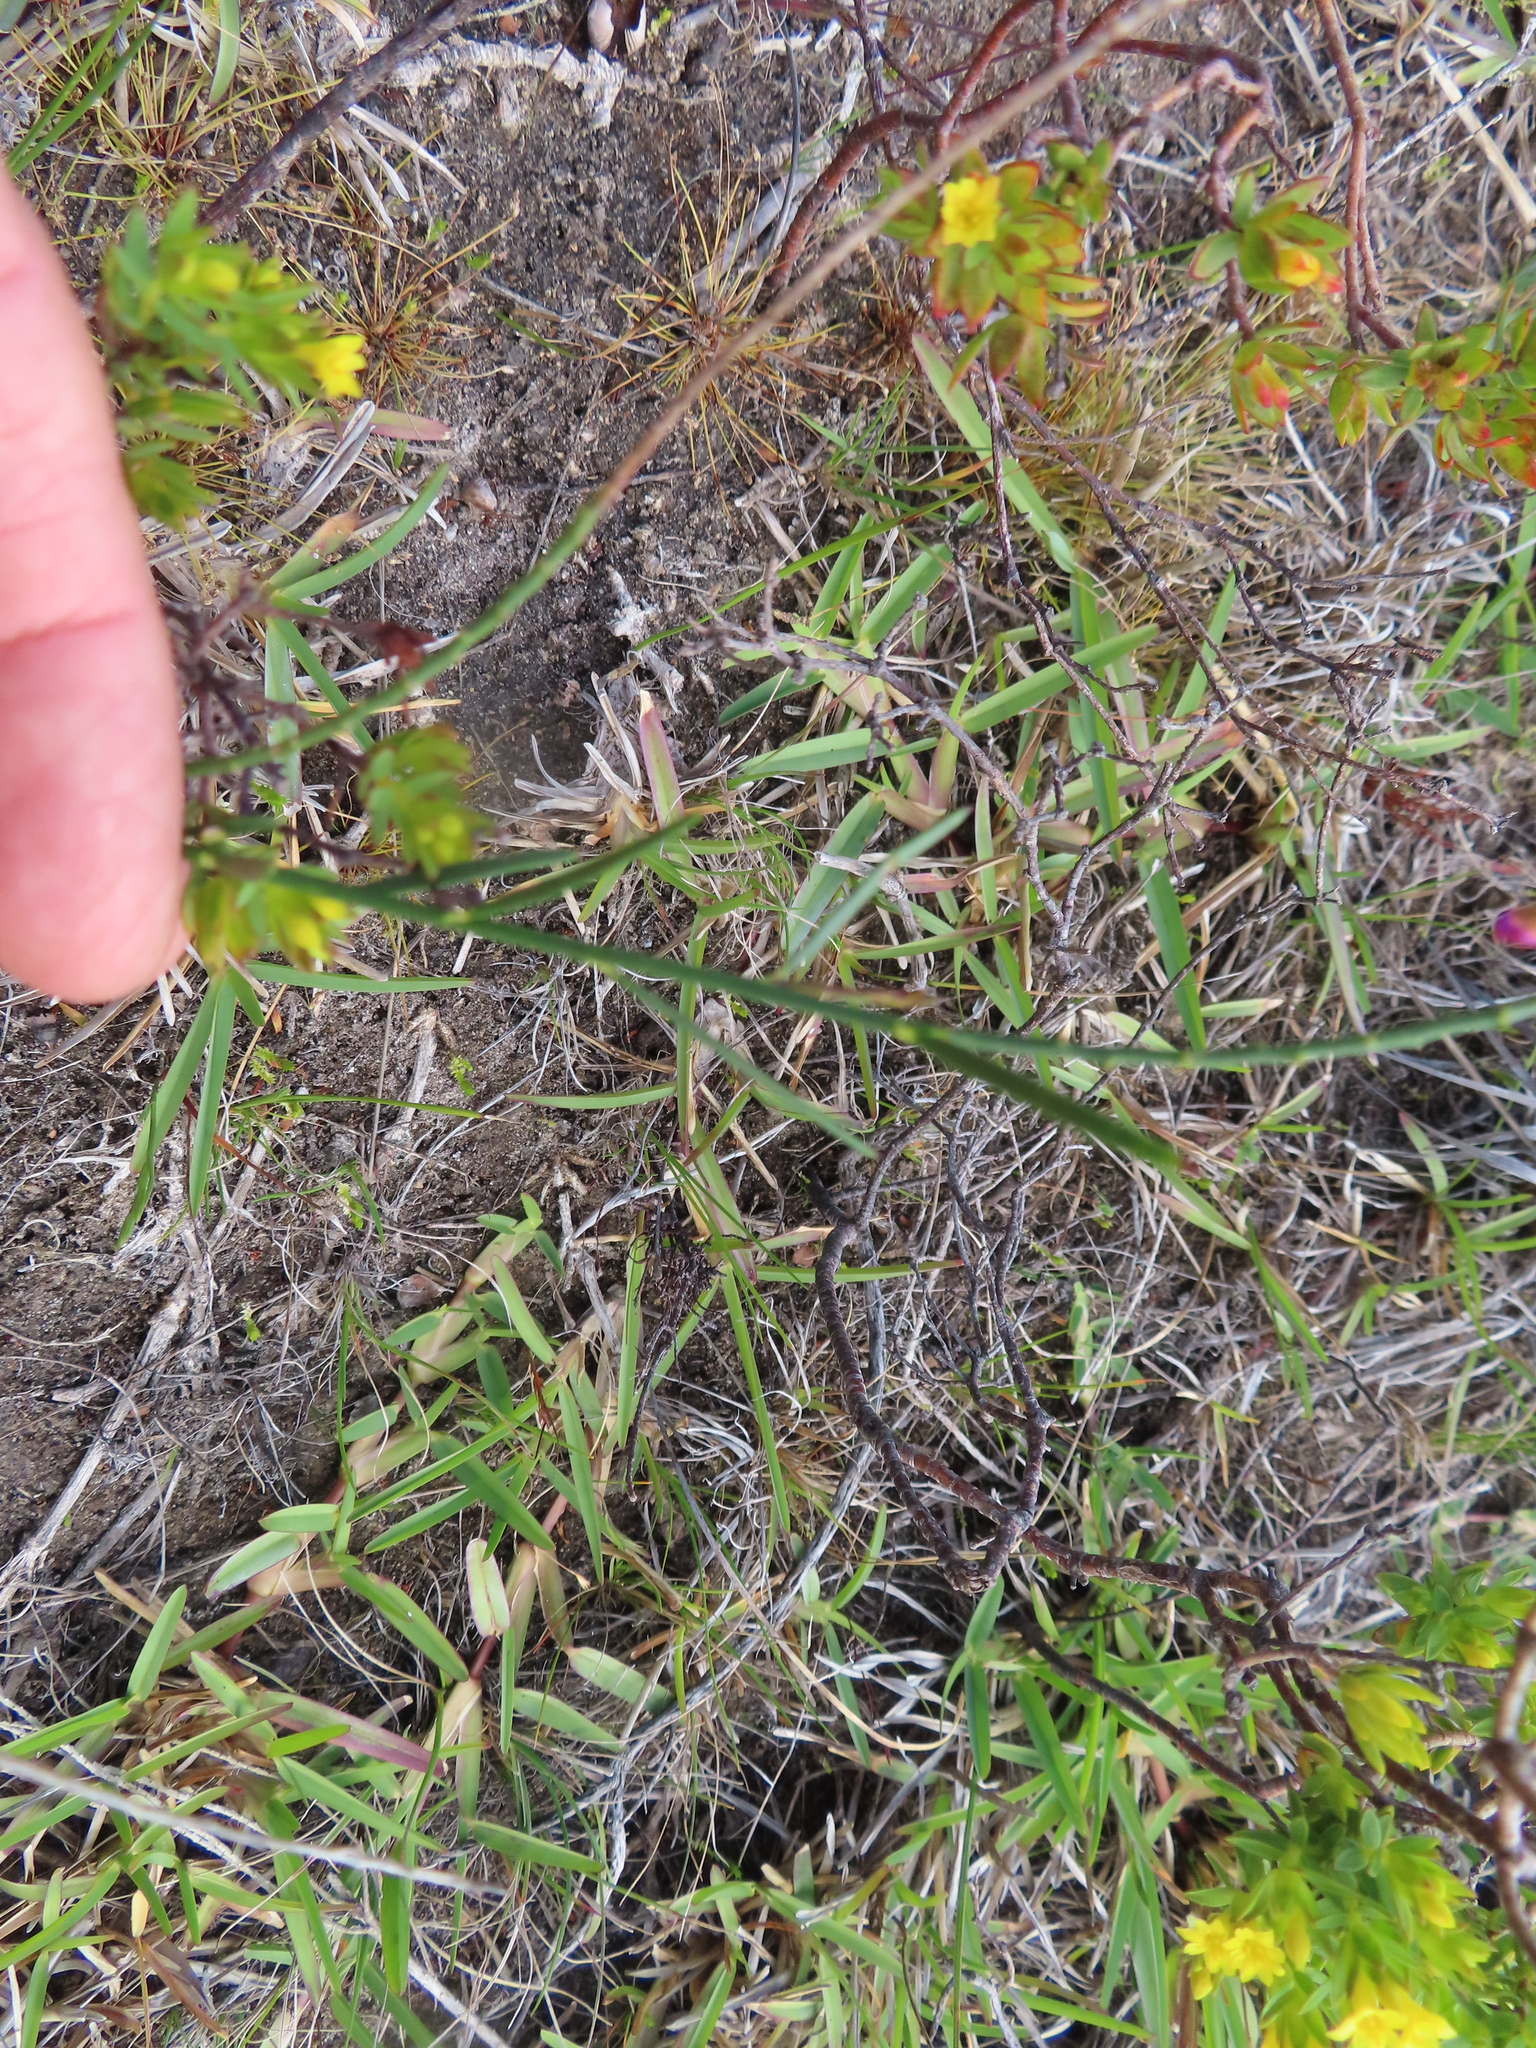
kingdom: Plantae
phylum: Tracheophyta
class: Magnoliopsida
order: Fabales
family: Polygalaceae
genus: Polygala
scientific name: Polygala garcini
